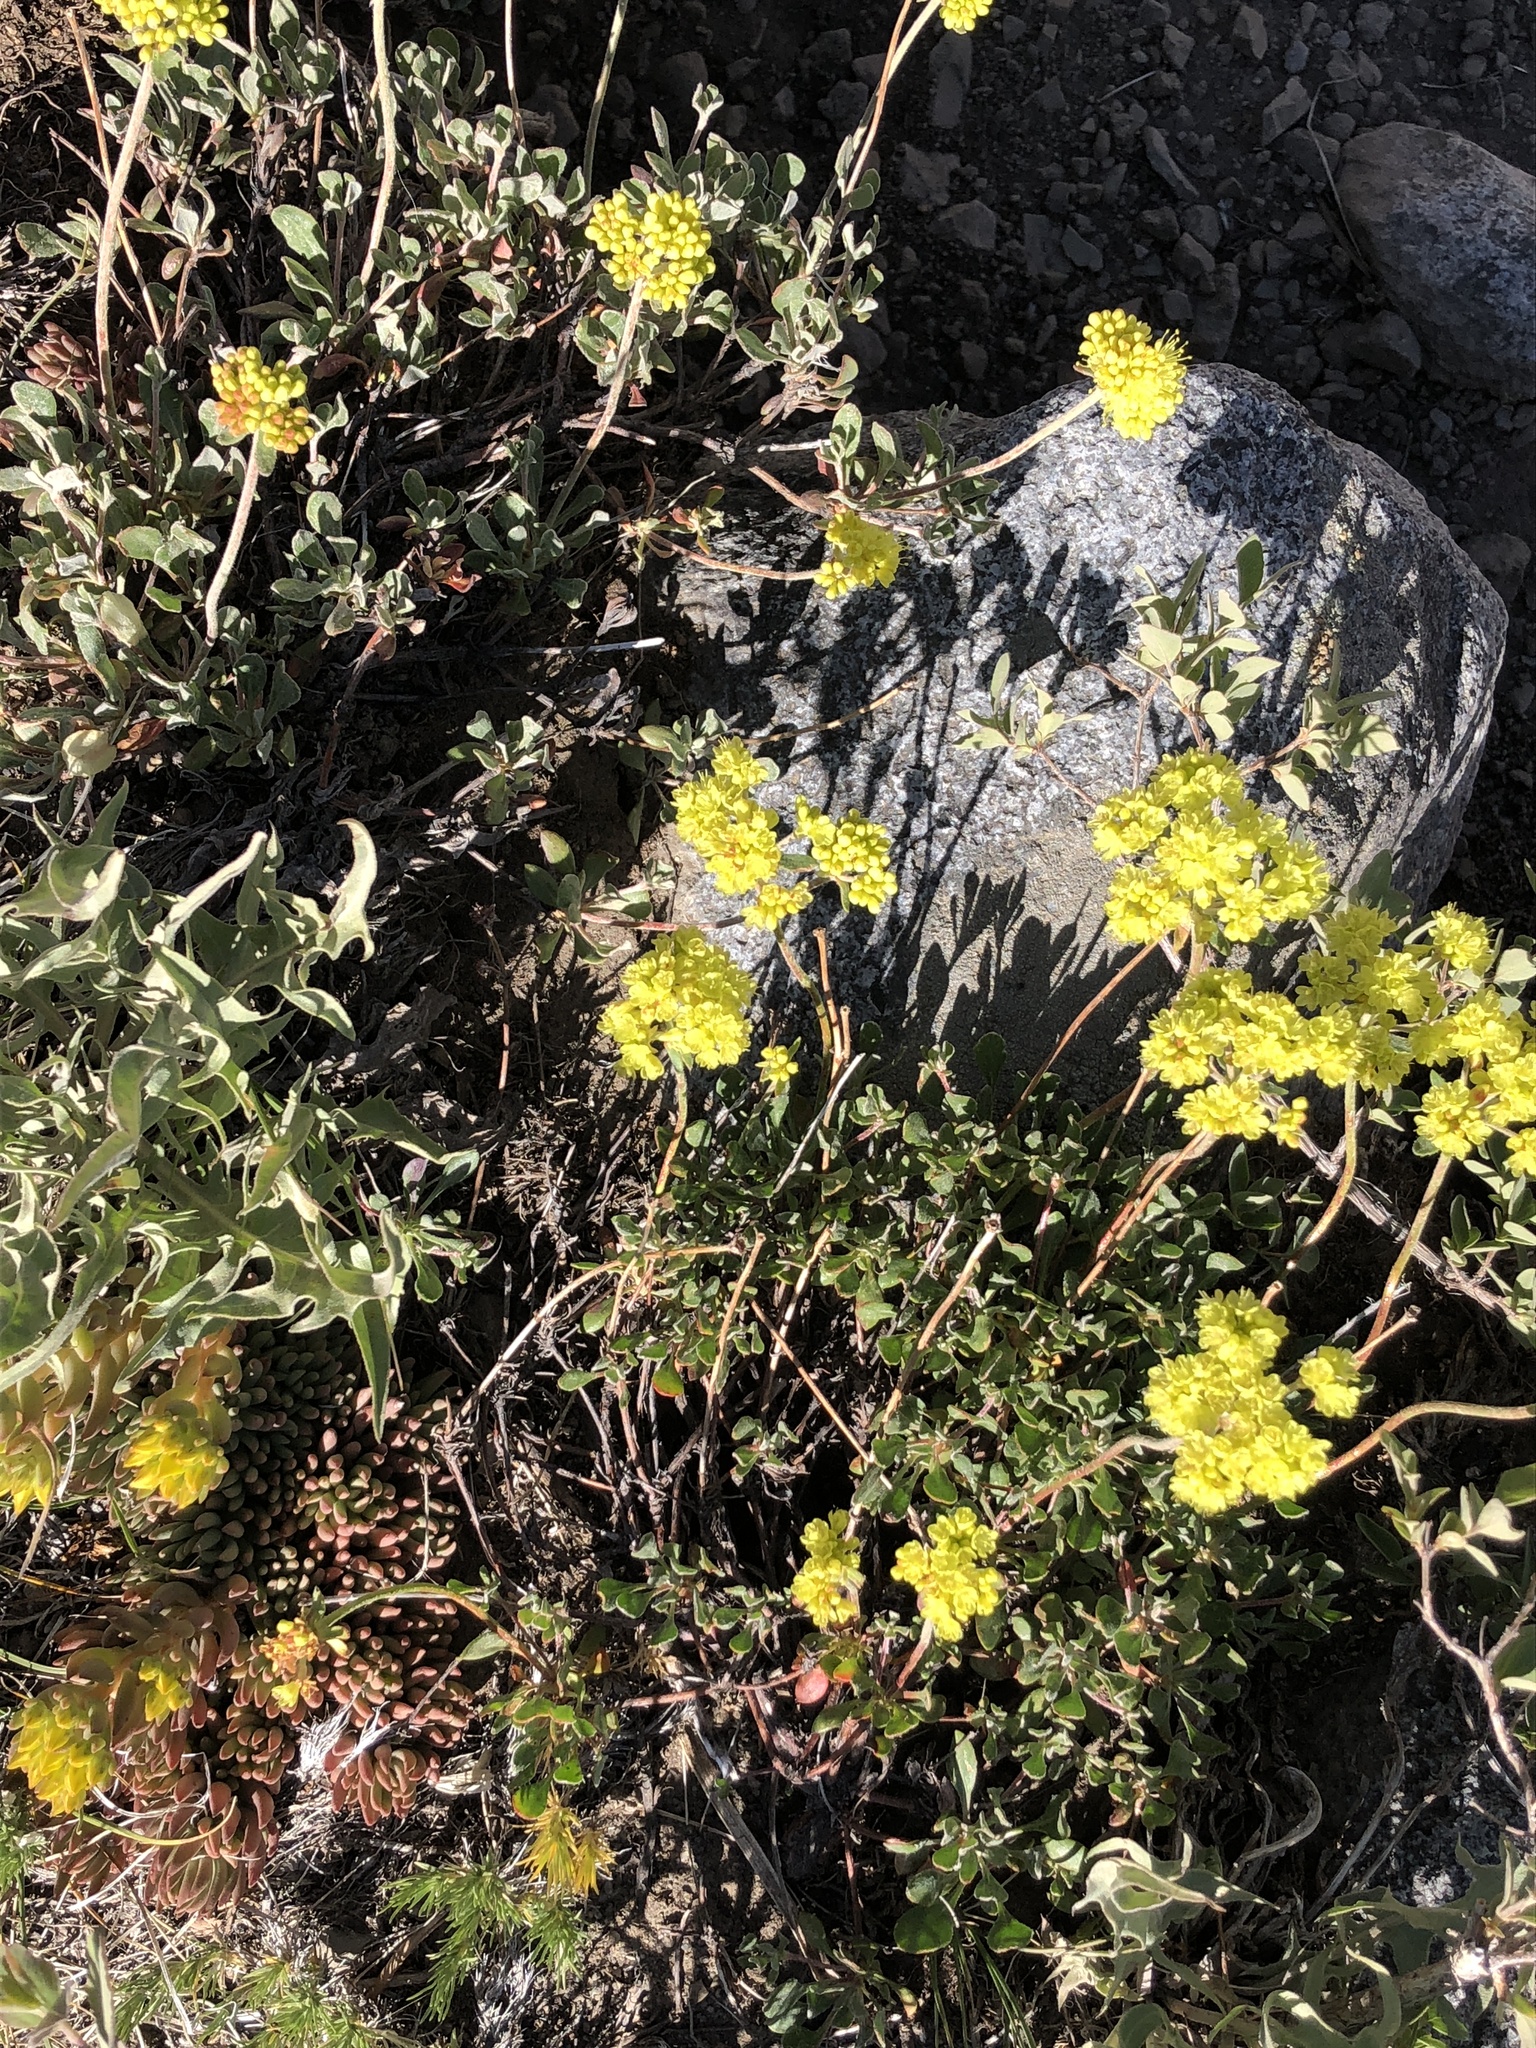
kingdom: Plantae
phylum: Tracheophyta
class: Magnoliopsida
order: Caryophyllales
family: Polygonaceae
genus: Eriogonum
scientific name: Eriogonum umbellatum
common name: Sulfur-buckwheat
